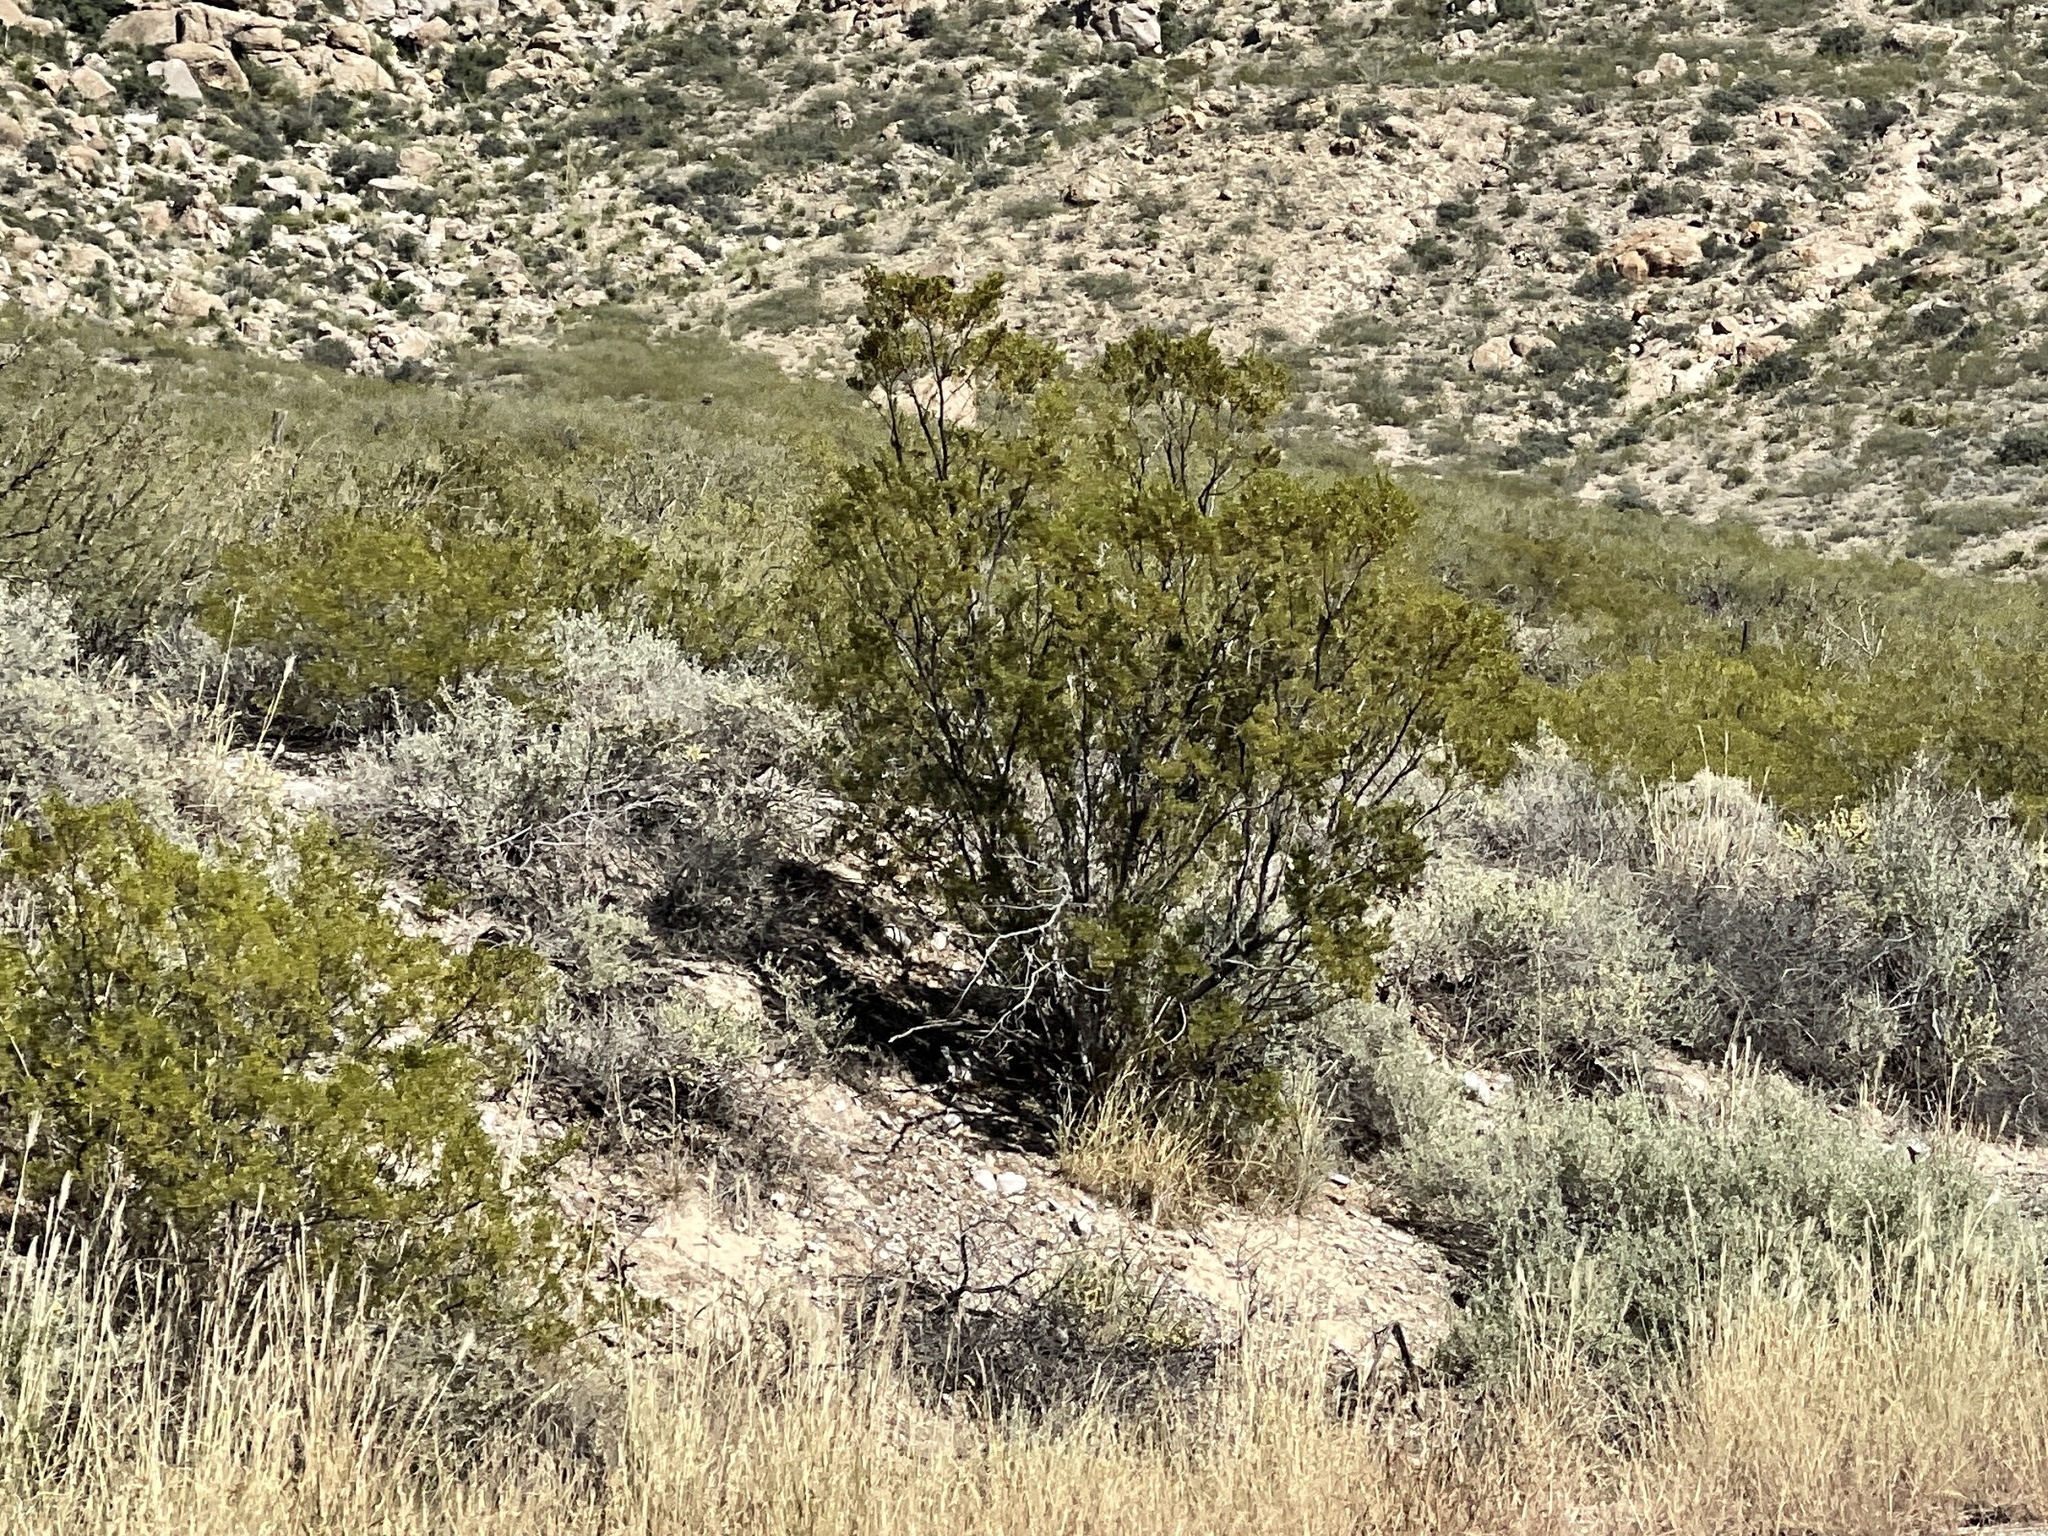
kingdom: Plantae
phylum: Tracheophyta
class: Magnoliopsida
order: Zygophyllales
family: Zygophyllaceae
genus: Larrea
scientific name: Larrea tridentata
